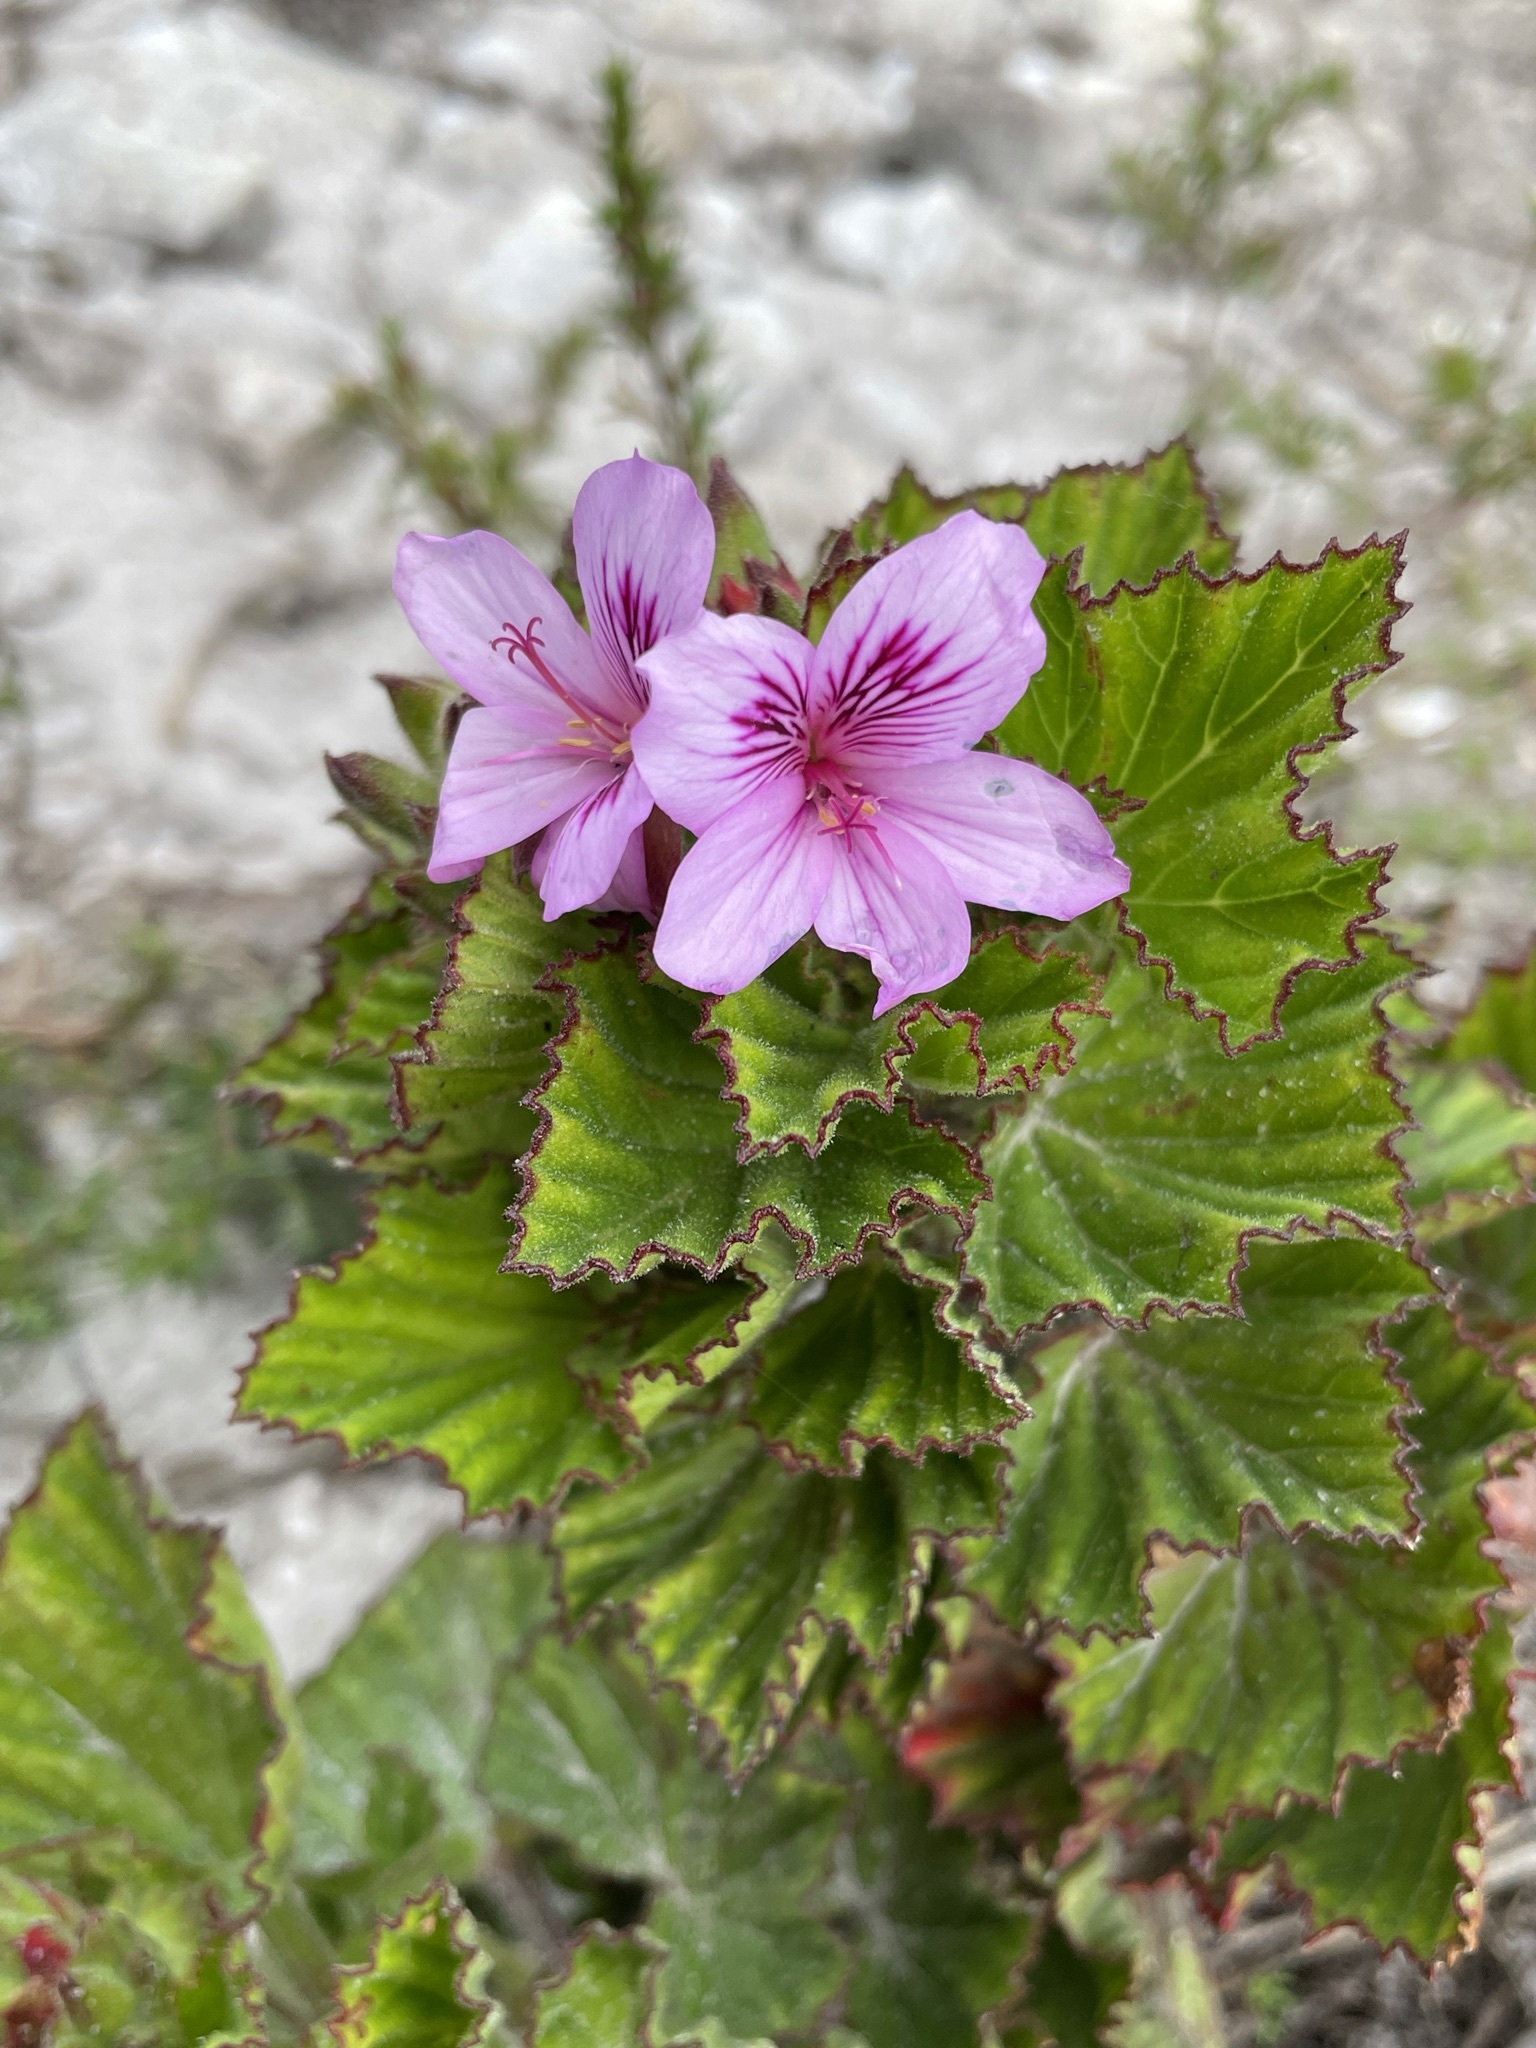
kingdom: Plantae
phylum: Tracheophyta
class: Magnoliopsida
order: Geraniales
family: Geraniaceae
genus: Pelargonium
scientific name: Pelargonium cucullatum
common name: Tree pelargonium
